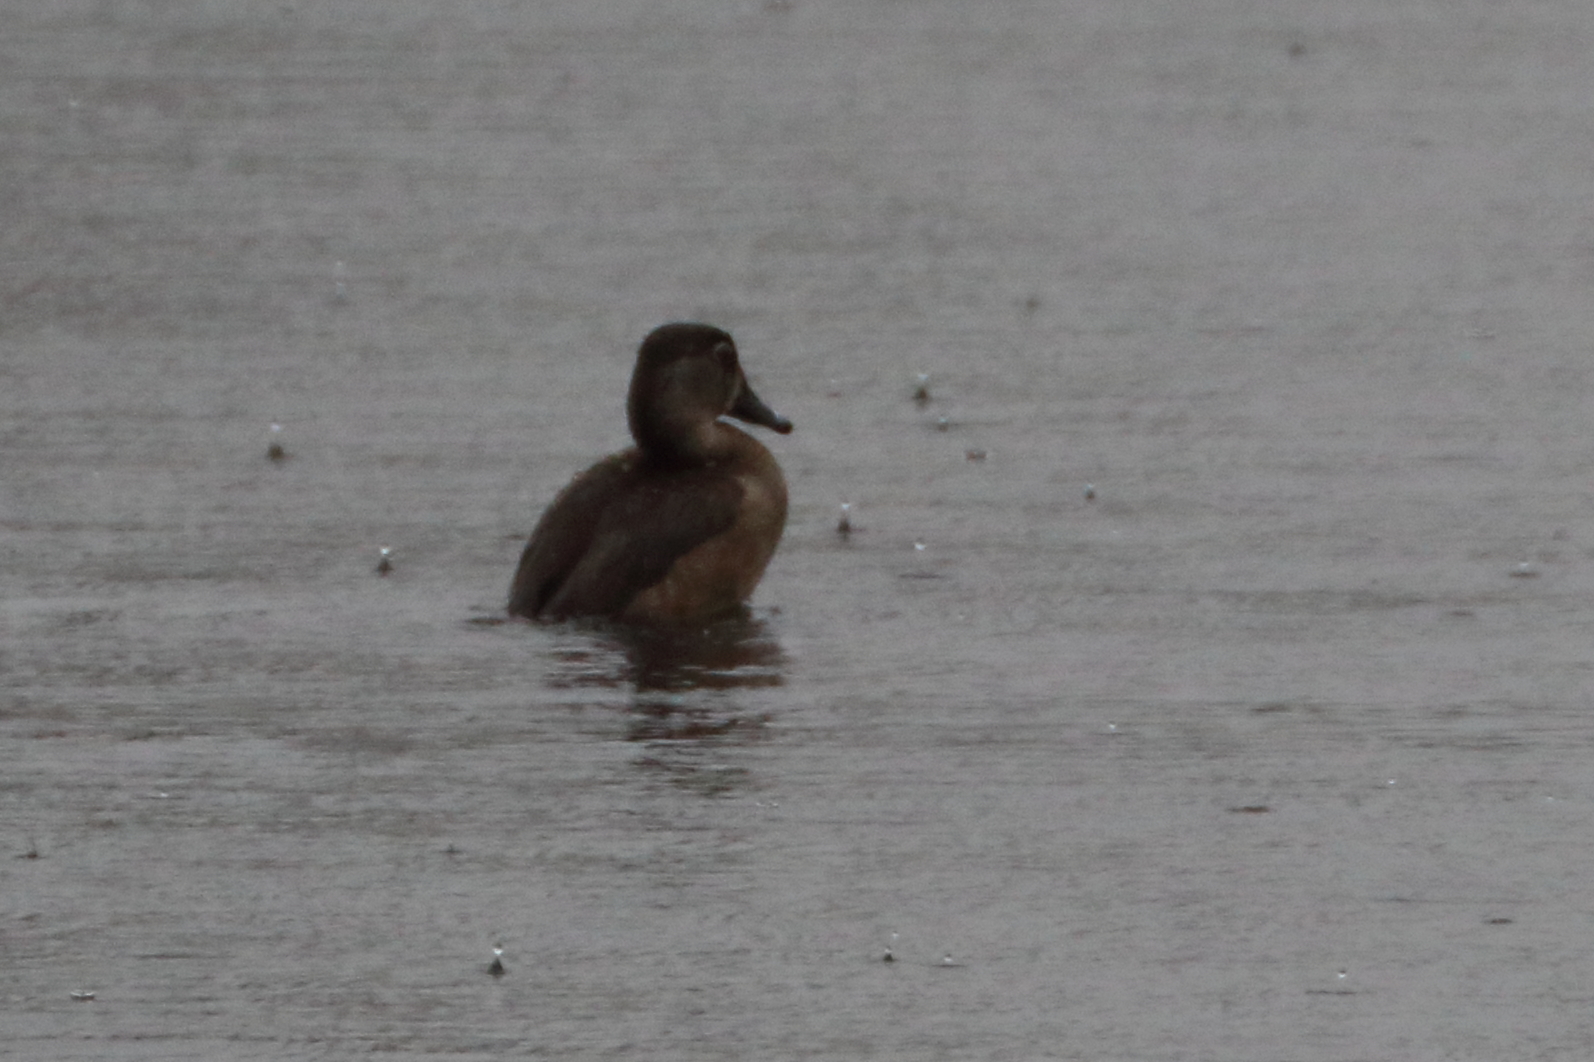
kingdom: Animalia
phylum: Chordata
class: Aves
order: Anseriformes
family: Anatidae
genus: Aythya
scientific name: Aythya collaris
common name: Ring-necked duck
